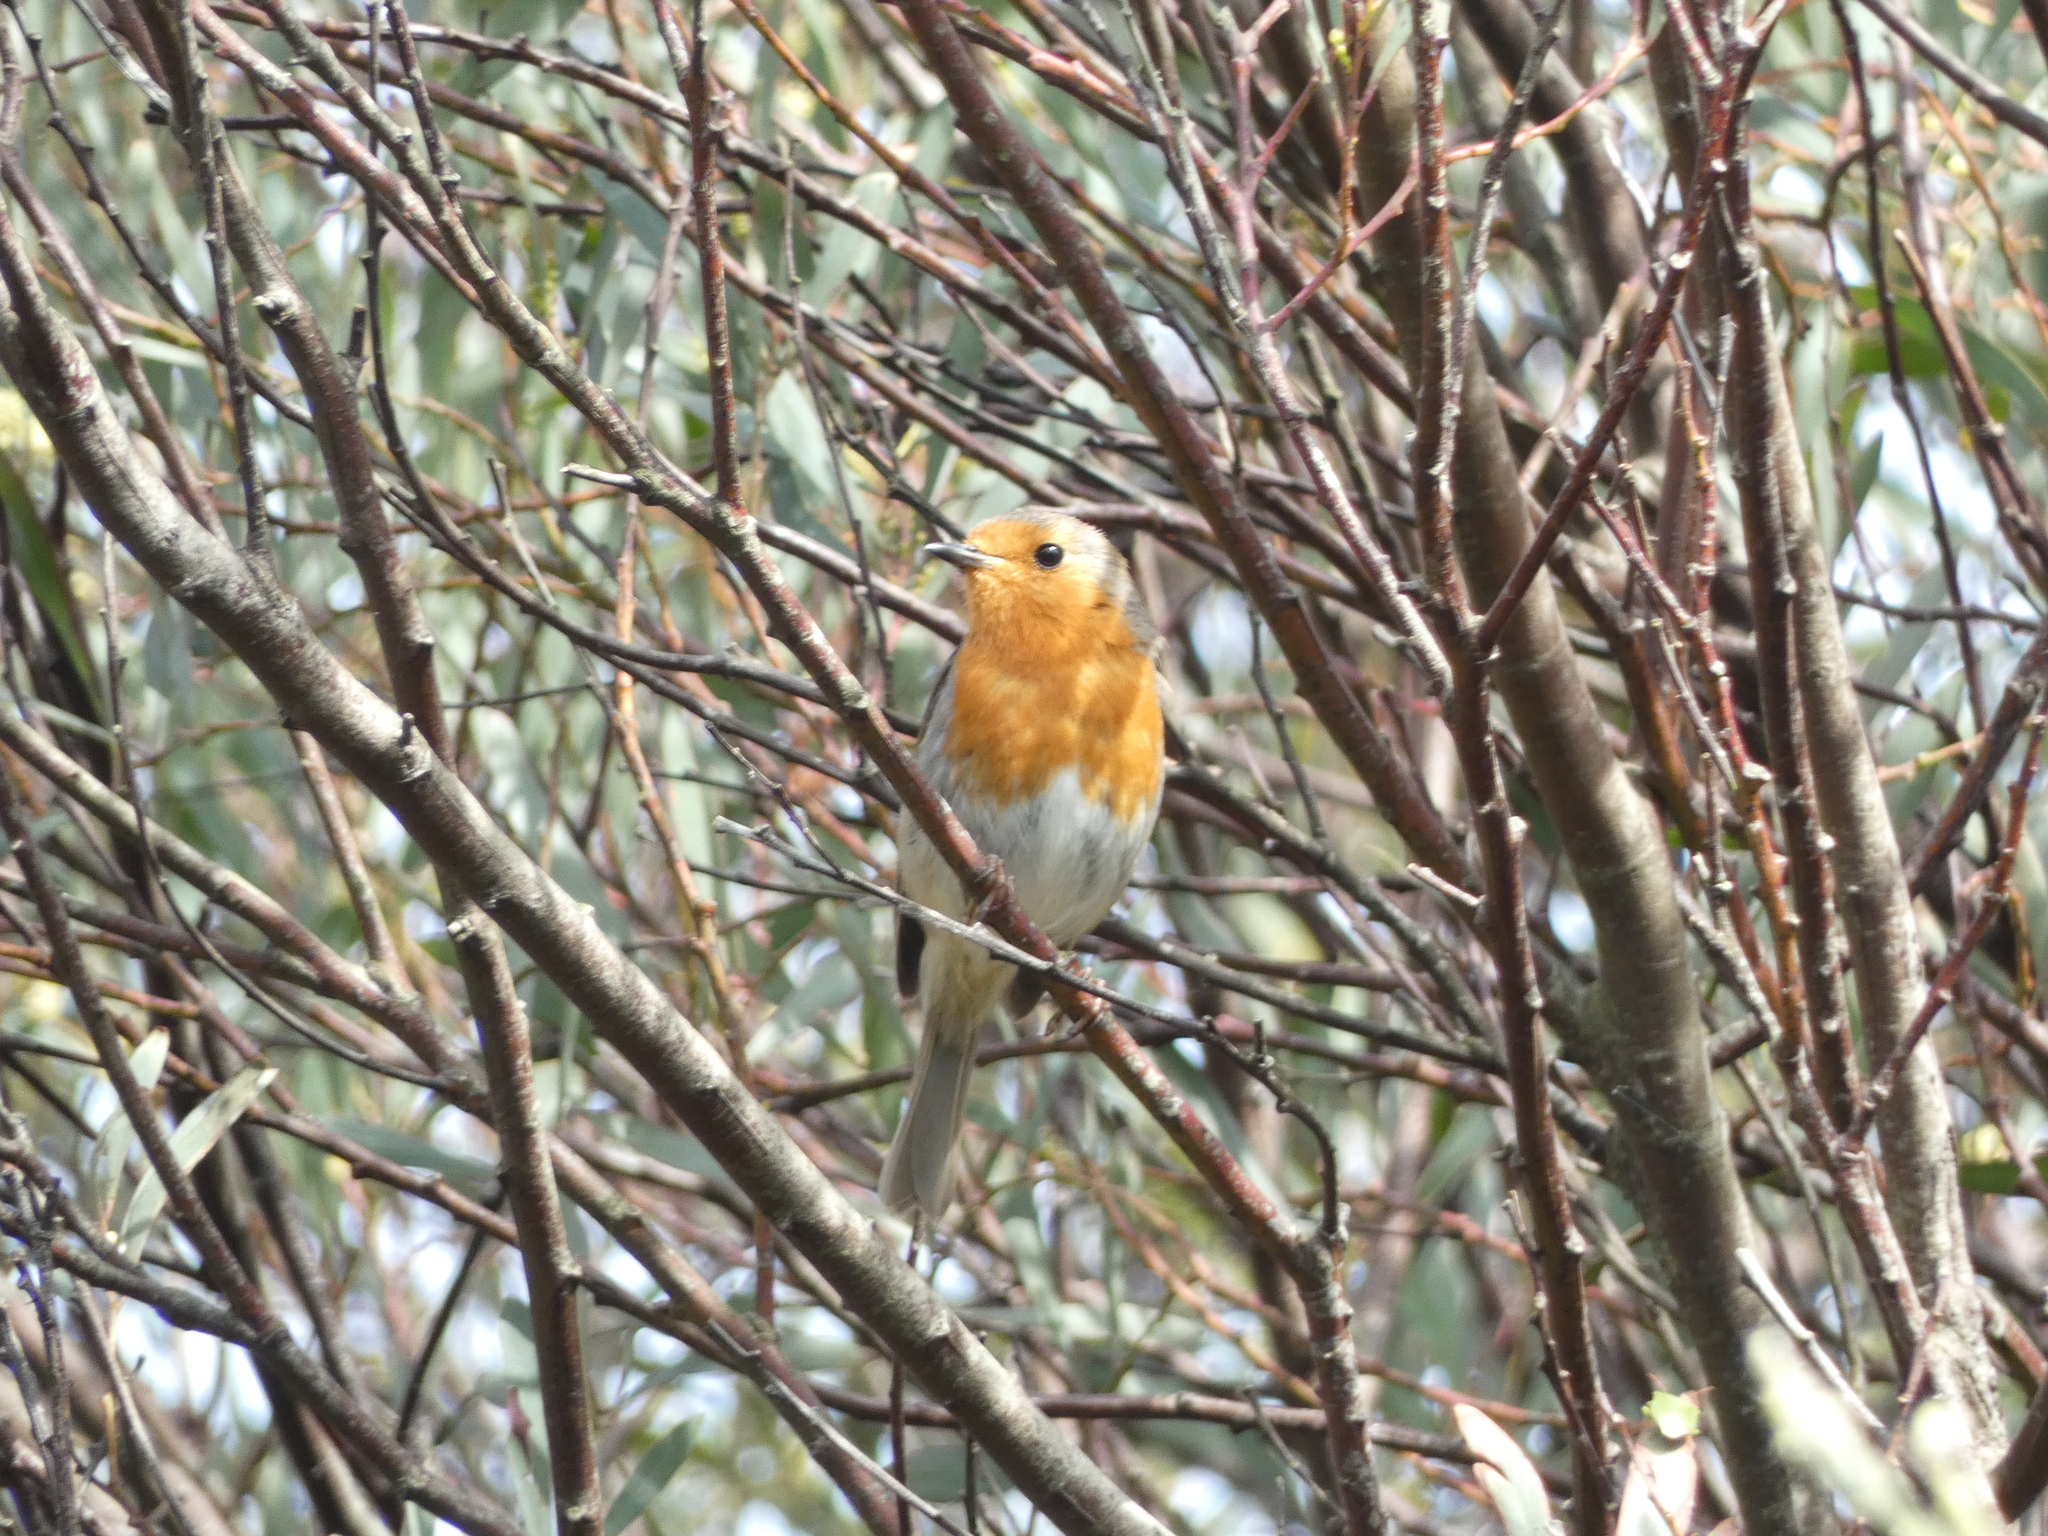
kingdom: Animalia
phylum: Chordata
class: Aves
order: Passeriformes
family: Muscicapidae
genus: Erithacus
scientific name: Erithacus rubecula
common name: European robin
